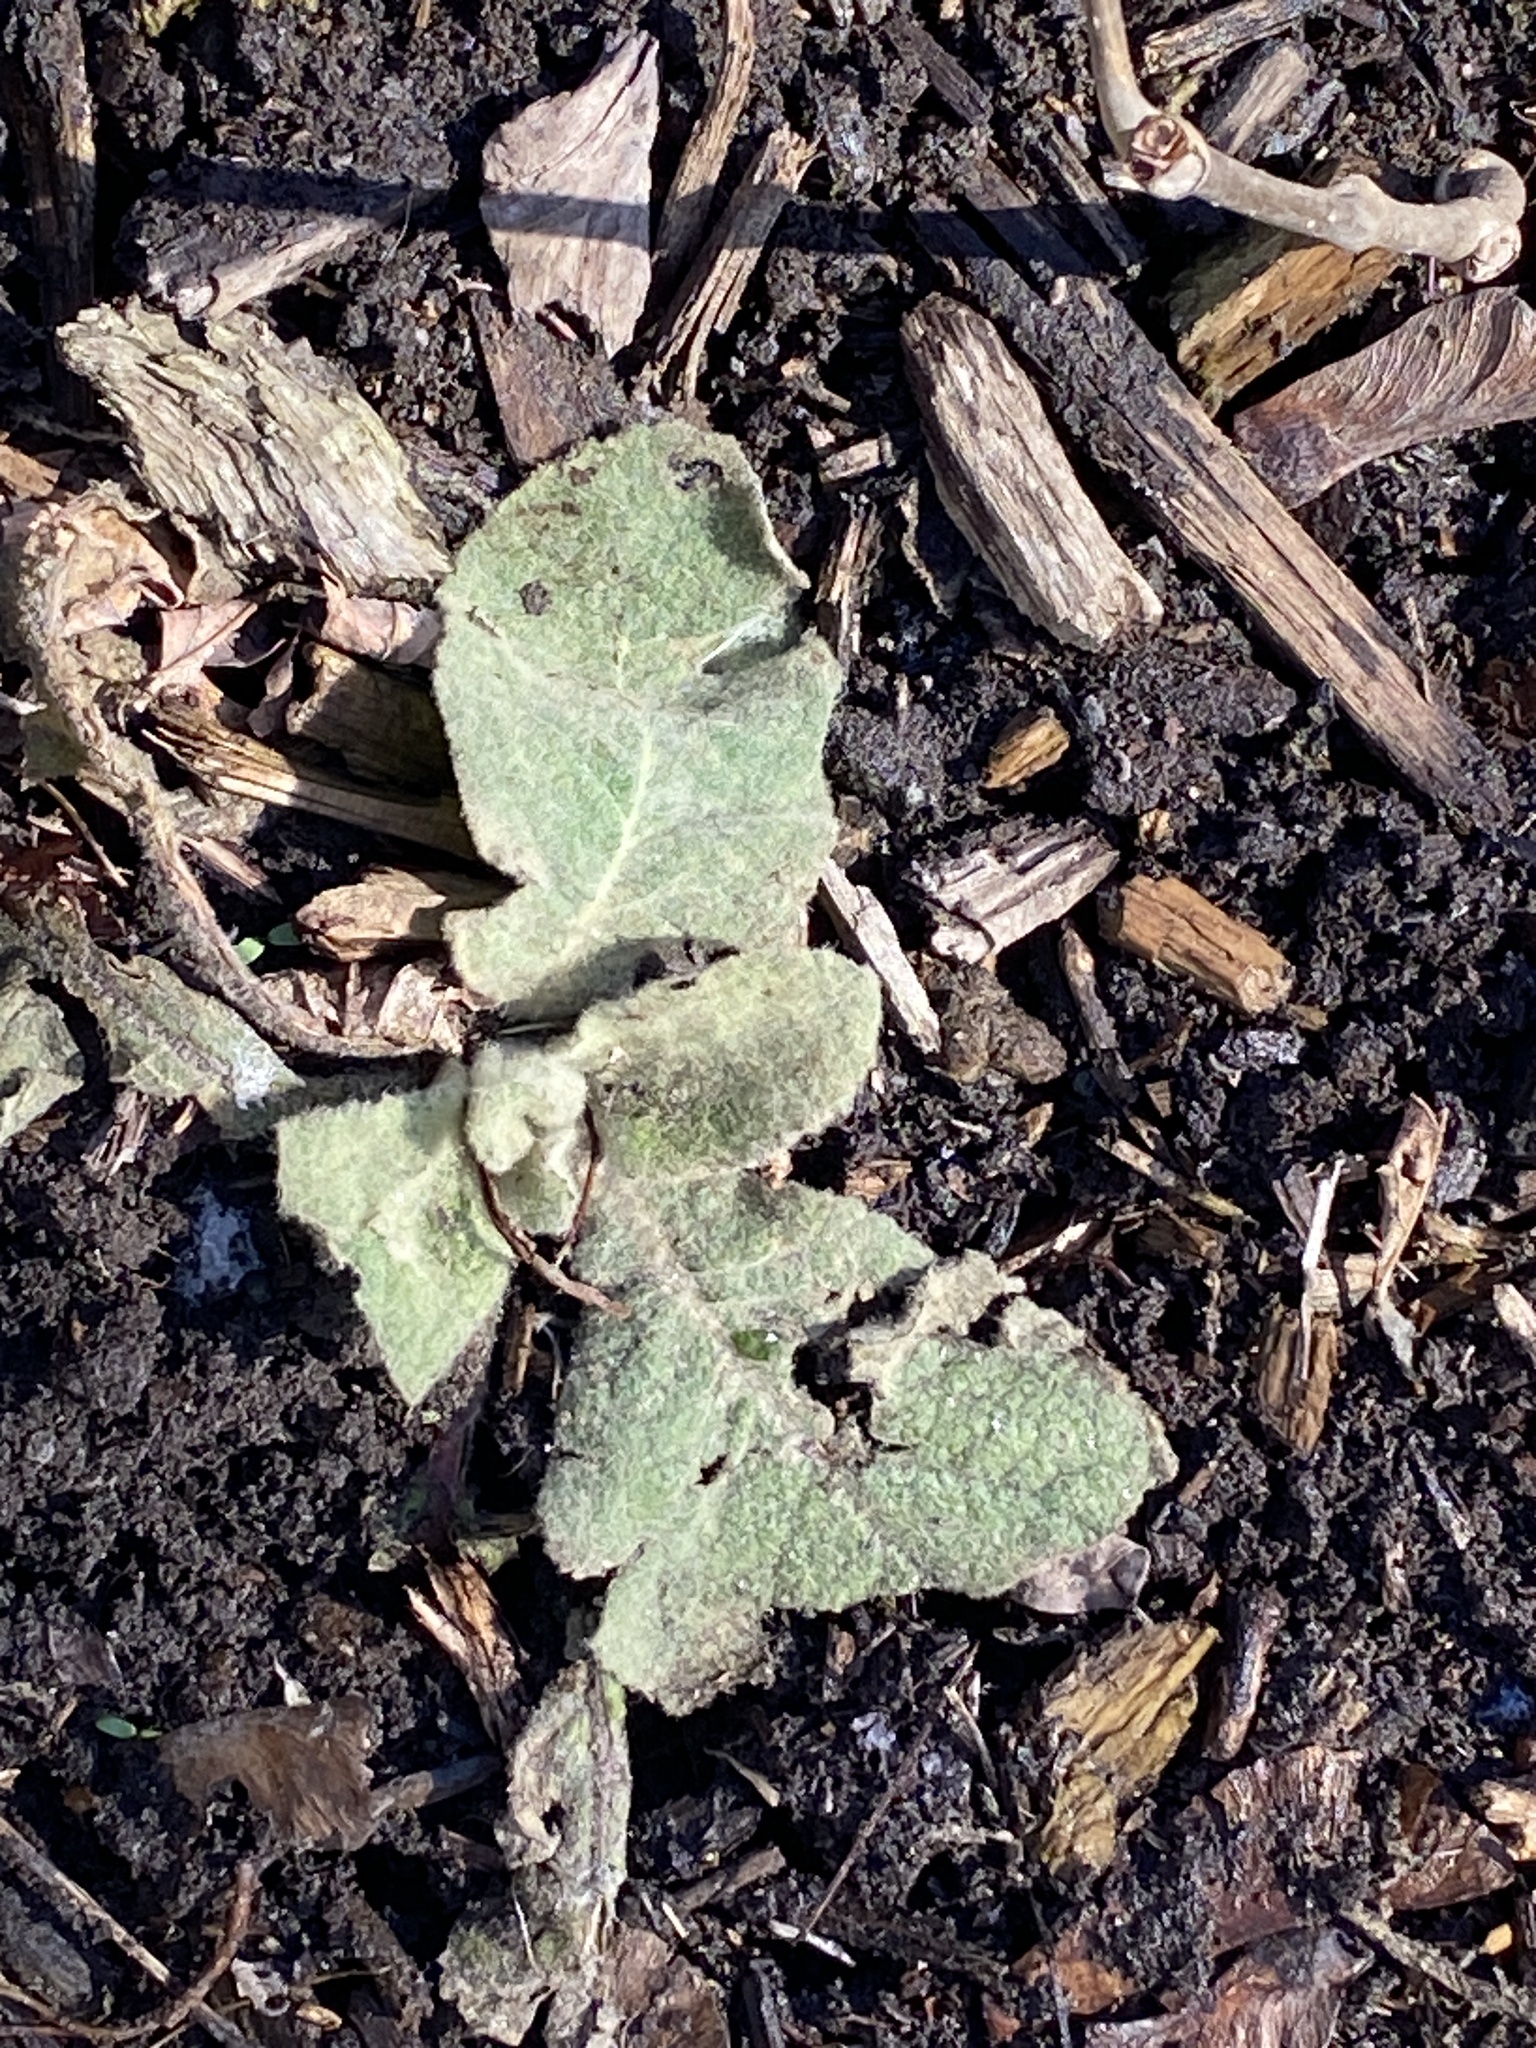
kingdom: Plantae
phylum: Tracheophyta
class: Magnoliopsida
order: Lamiales
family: Scrophulariaceae
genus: Verbascum
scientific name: Verbascum thapsus
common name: Common mullein
